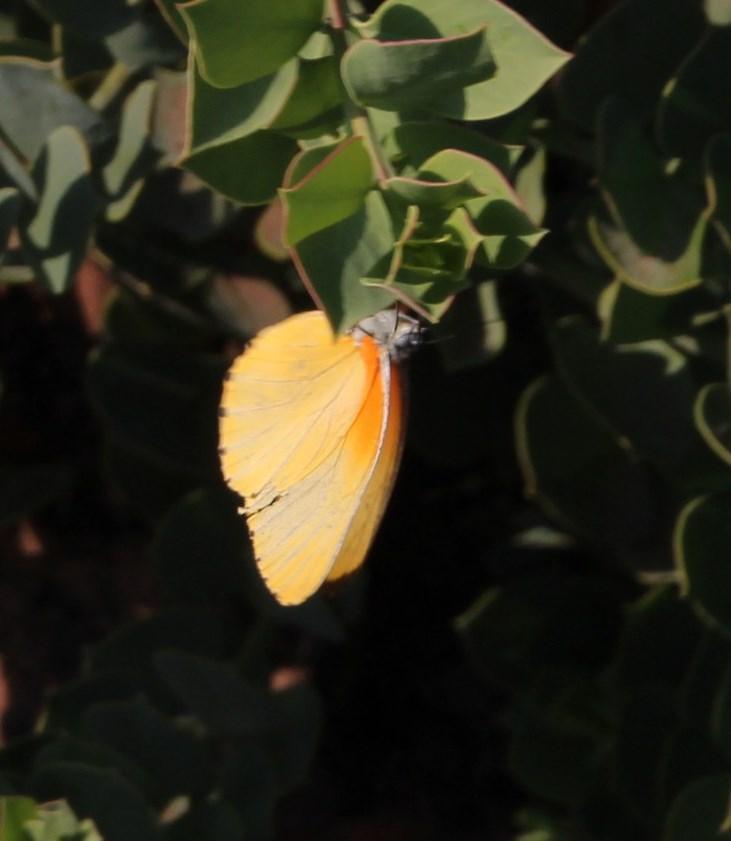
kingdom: Animalia
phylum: Arthropoda
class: Insecta
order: Lepidoptera
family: Pieridae
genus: Mylothris
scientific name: Mylothris agathina
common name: Eastern dotted border
